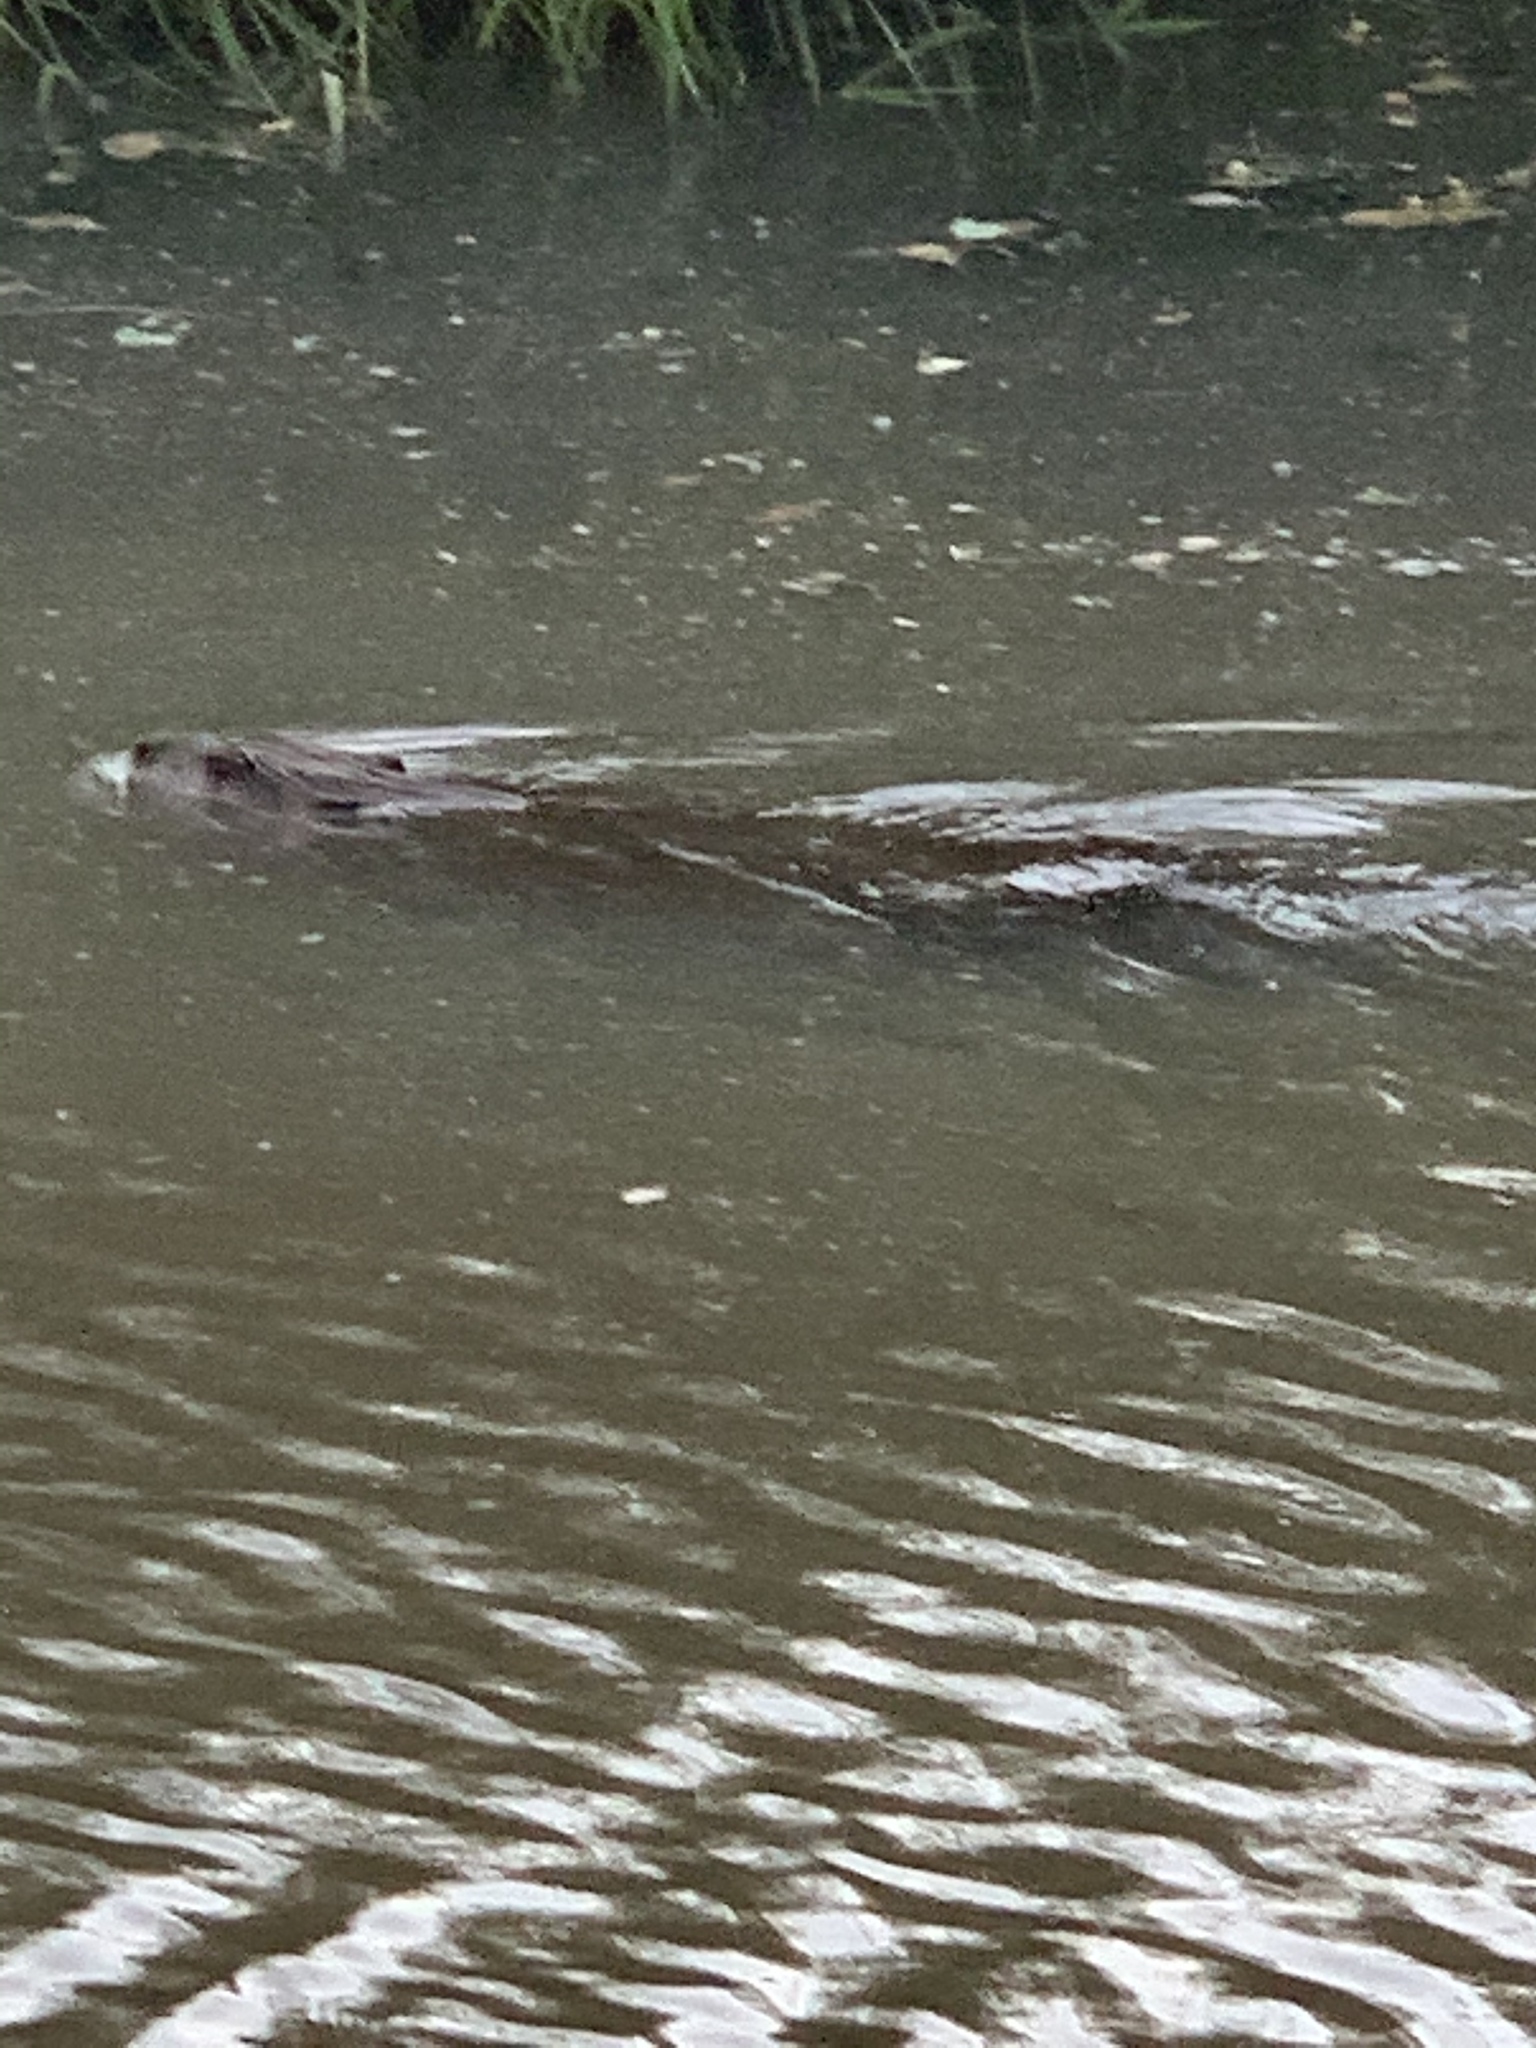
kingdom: Animalia
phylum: Chordata
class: Mammalia
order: Rodentia
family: Cricetidae
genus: Ondatra
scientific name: Ondatra zibethicus
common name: Muskrat
